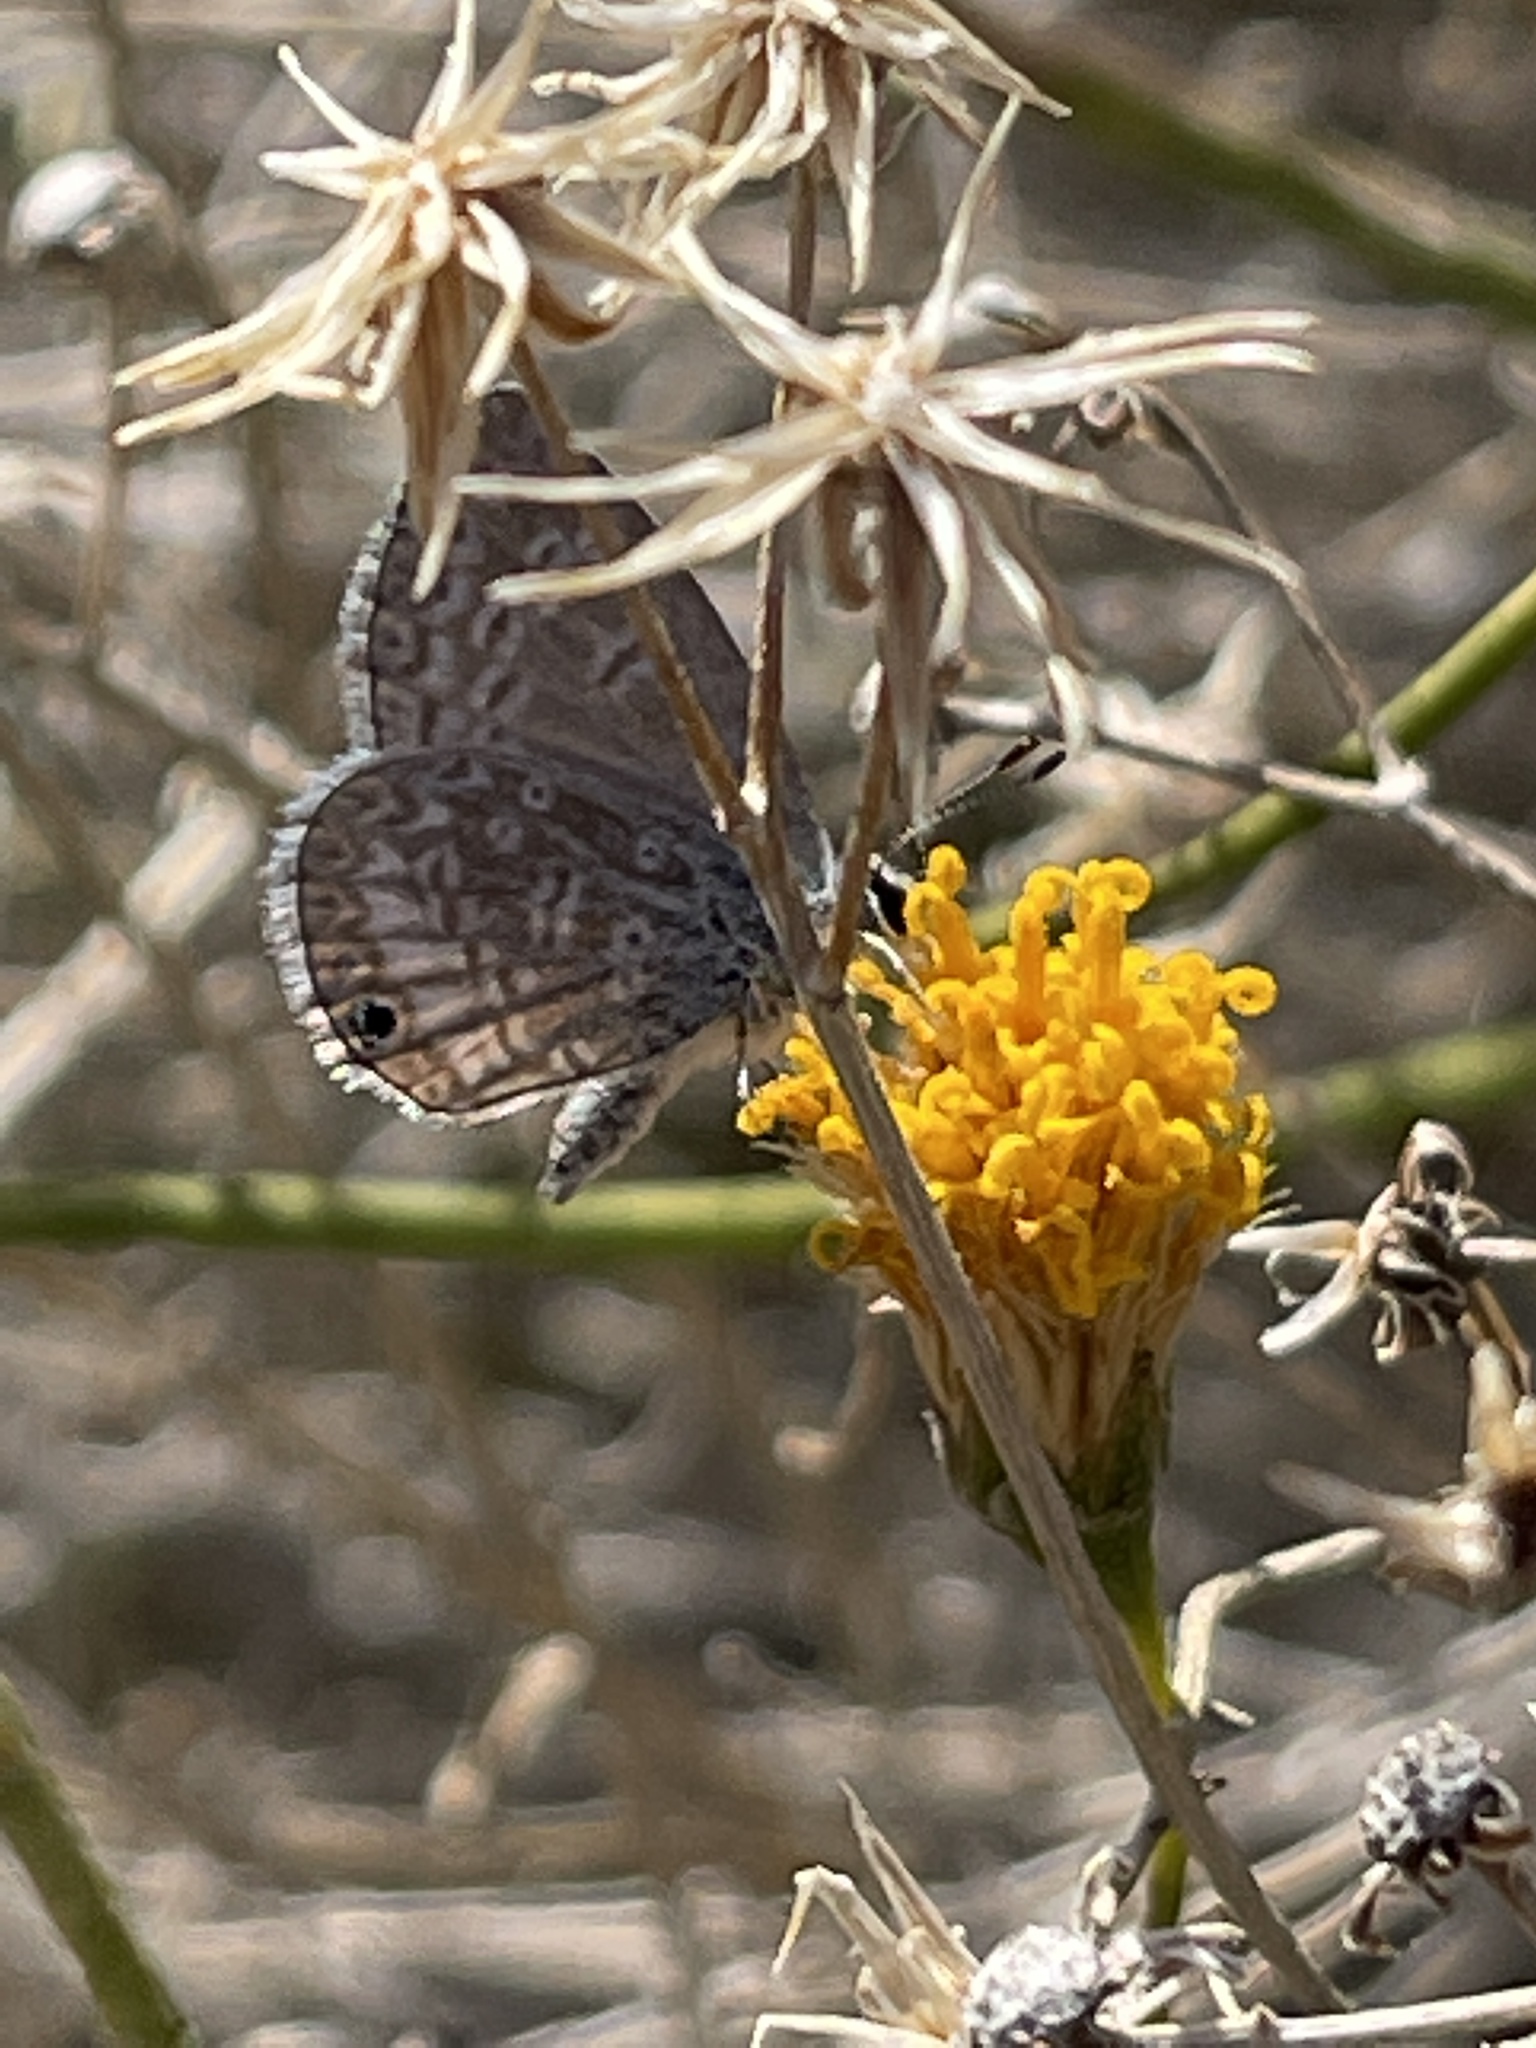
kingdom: Animalia
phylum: Arthropoda
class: Insecta
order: Lepidoptera
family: Lycaenidae
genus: Hemiargus
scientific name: Hemiargus ceraunus
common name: Ceraunus blue
